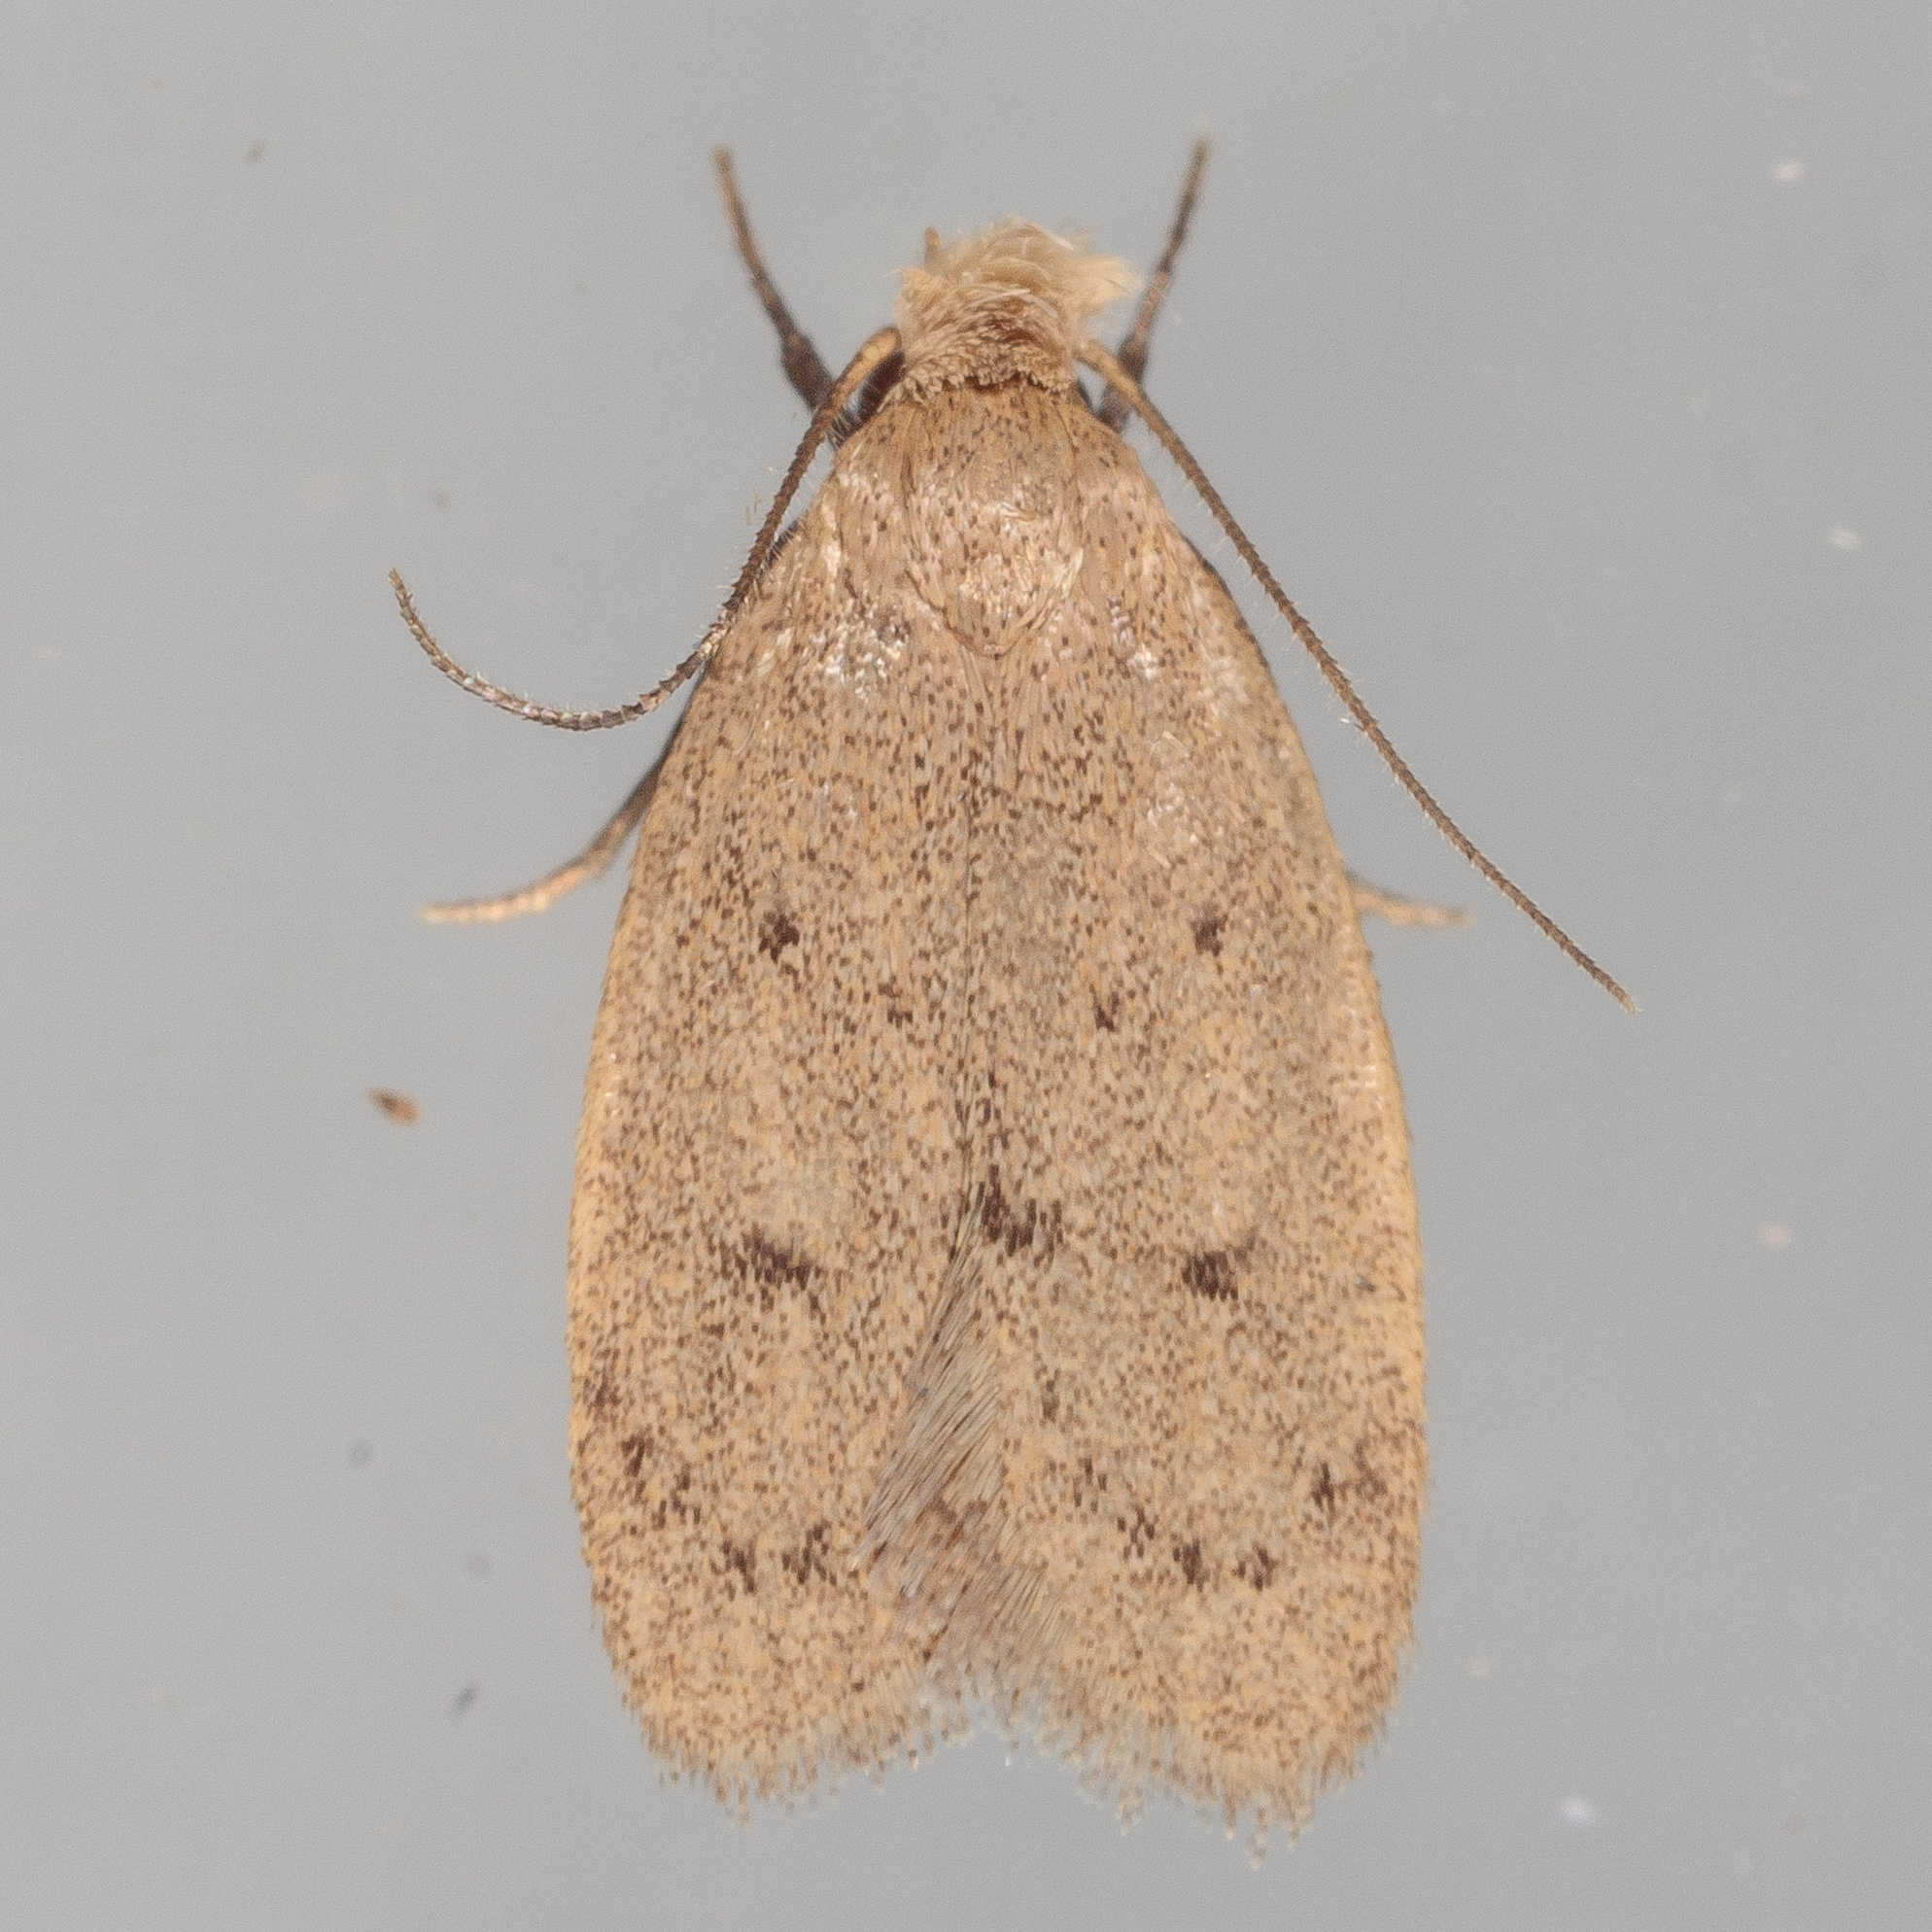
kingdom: Animalia
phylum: Arthropoda
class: Insecta
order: Lepidoptera
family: Oecophoridae
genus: Inga
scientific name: Inga obscuromaculella
